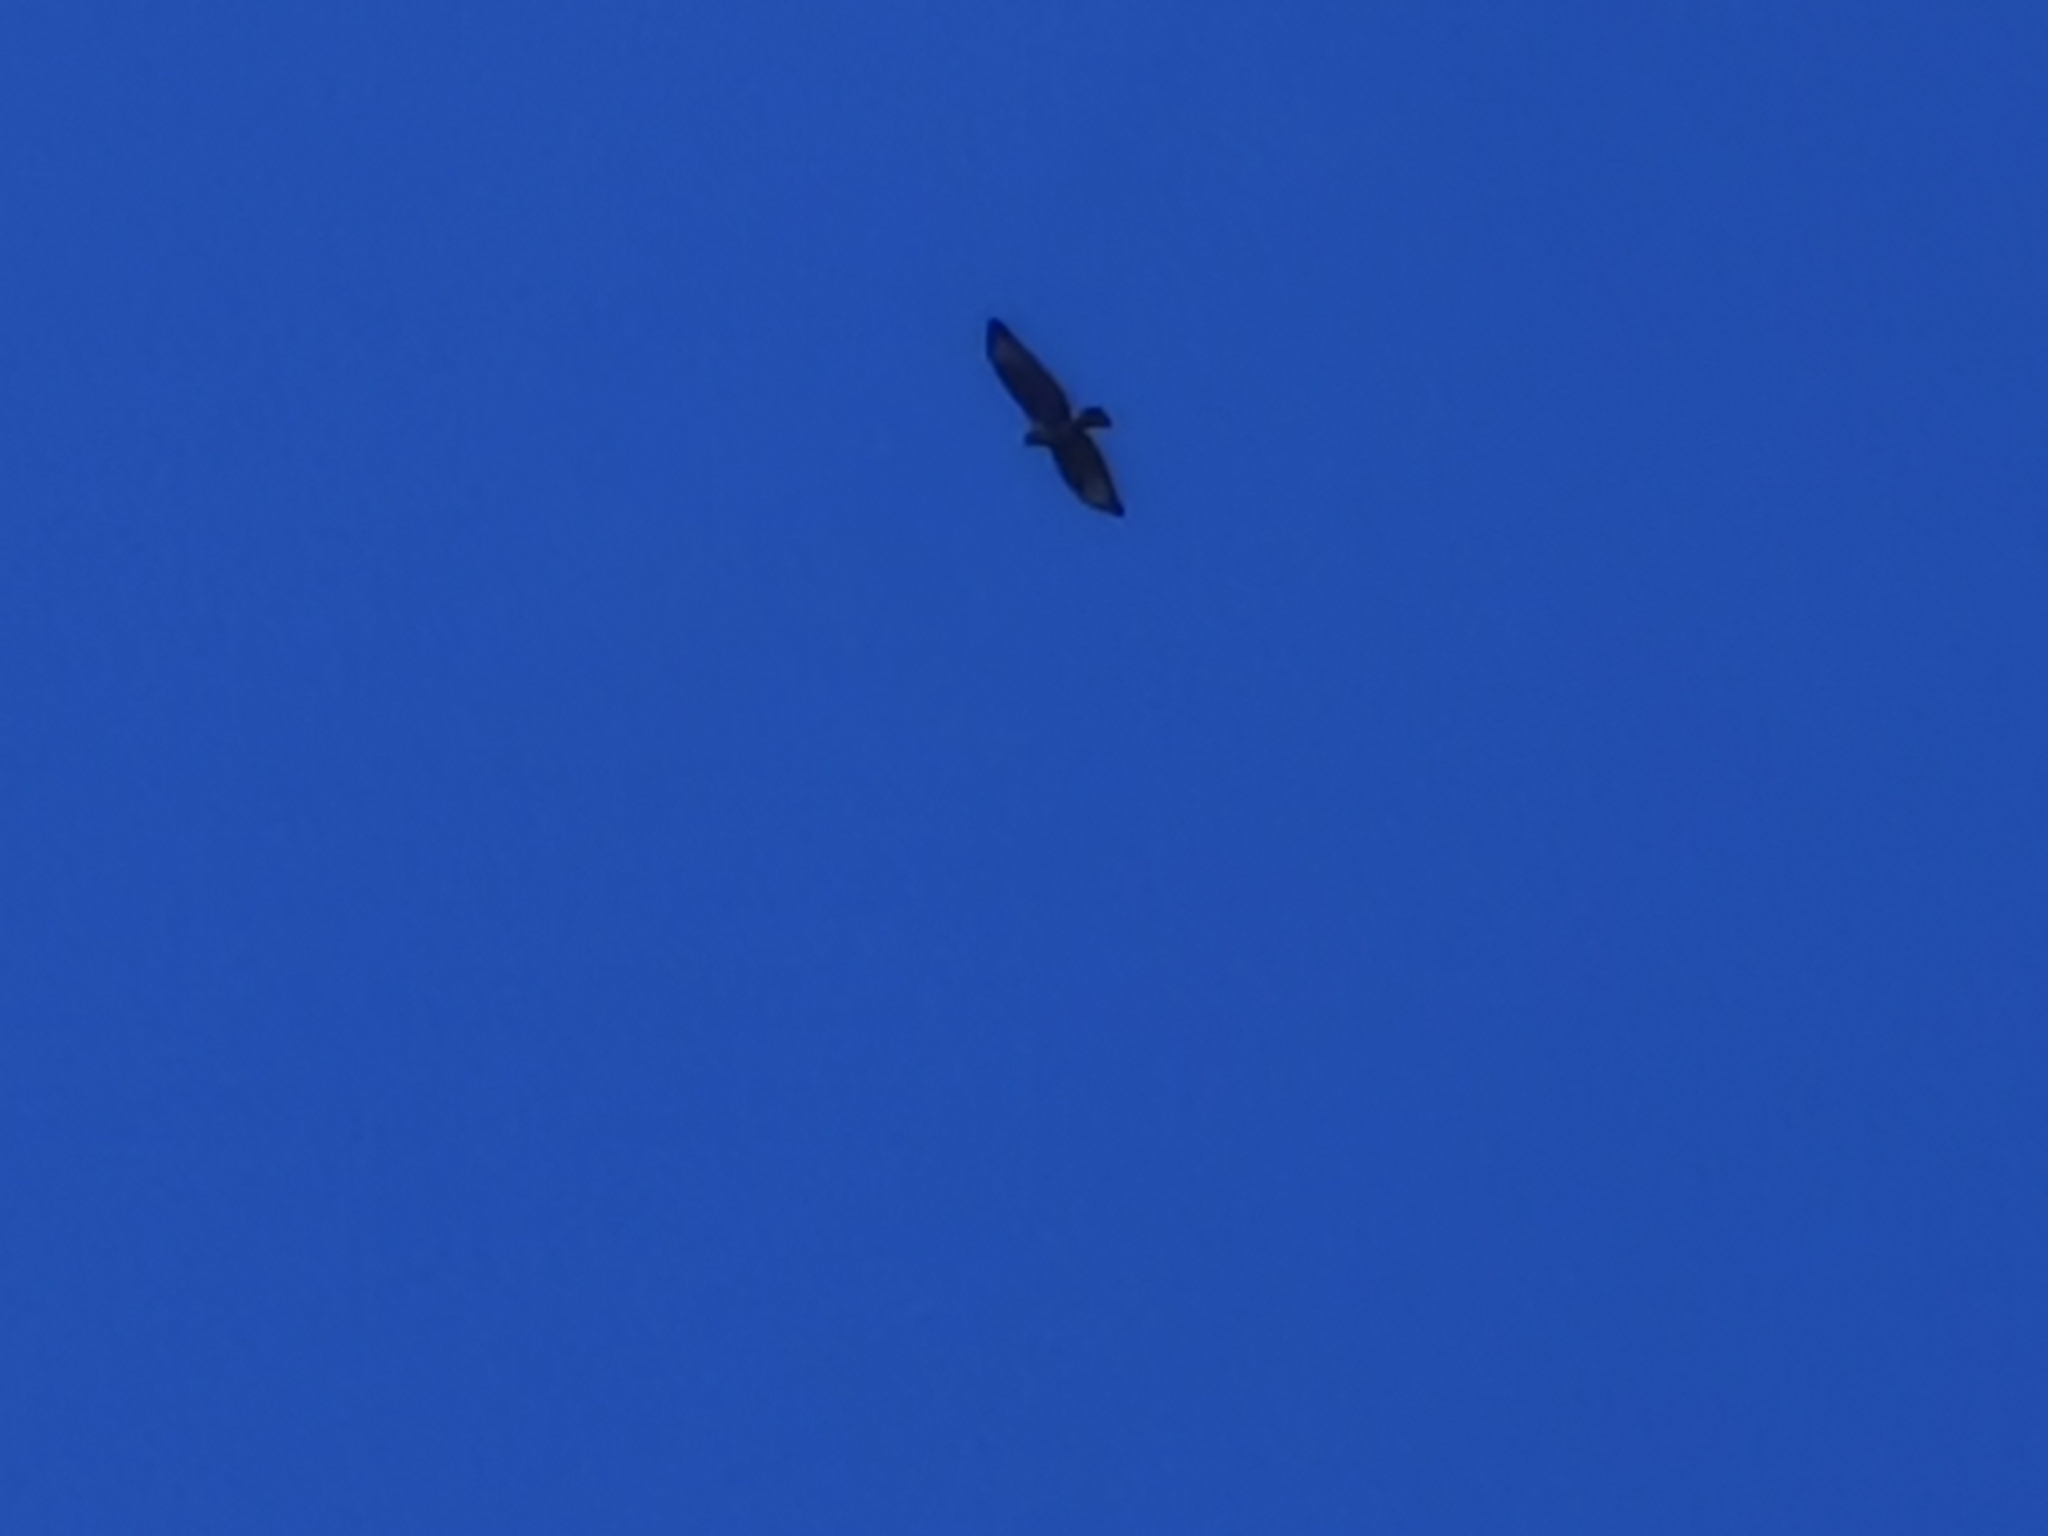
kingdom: Animalia
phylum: Chordata
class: Aves
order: Accipitriformes
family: Accipitridae
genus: Buteo
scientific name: Buteo buteo
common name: Common buzzard
